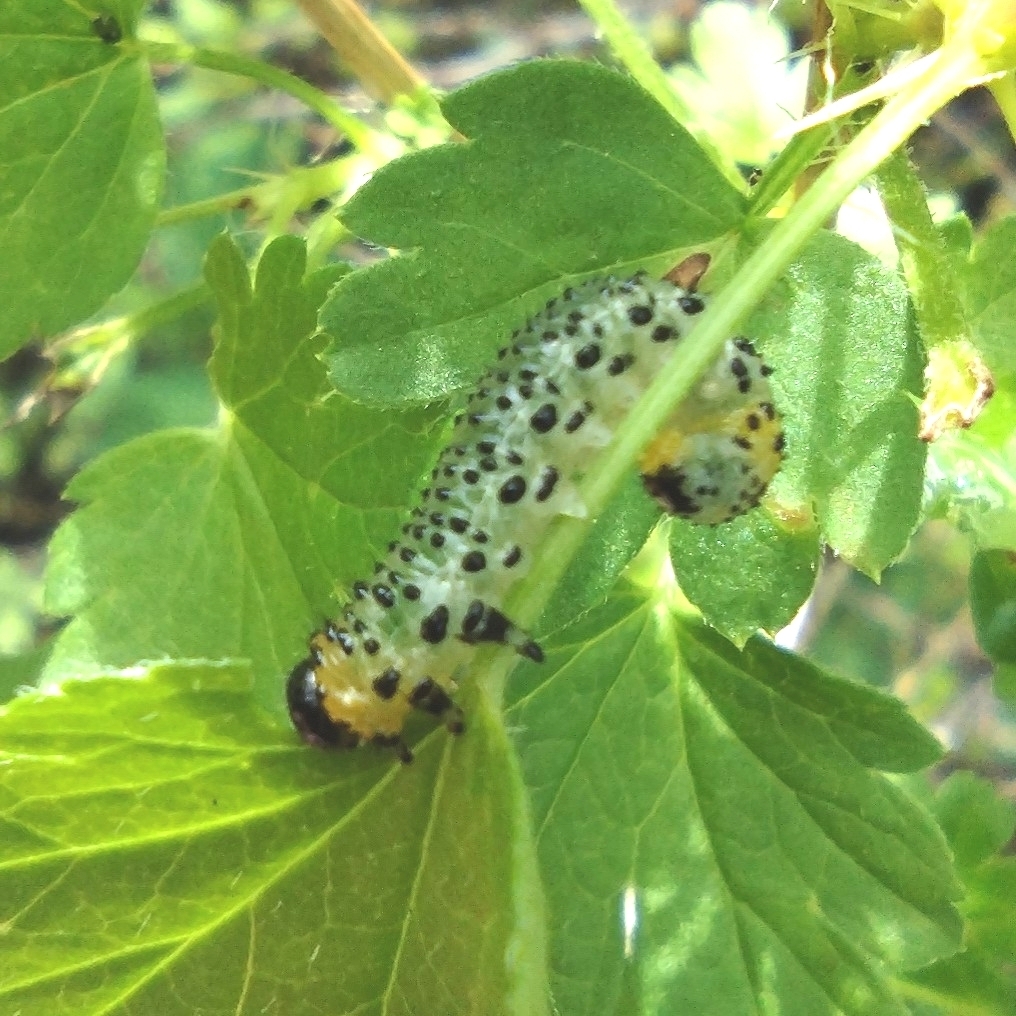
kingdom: Animalia
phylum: Arthropoda
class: Insecta
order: Hymenoptera
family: Tenthredinidae
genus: Nematus
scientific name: Nematus ribesii
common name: Imported currantworm
